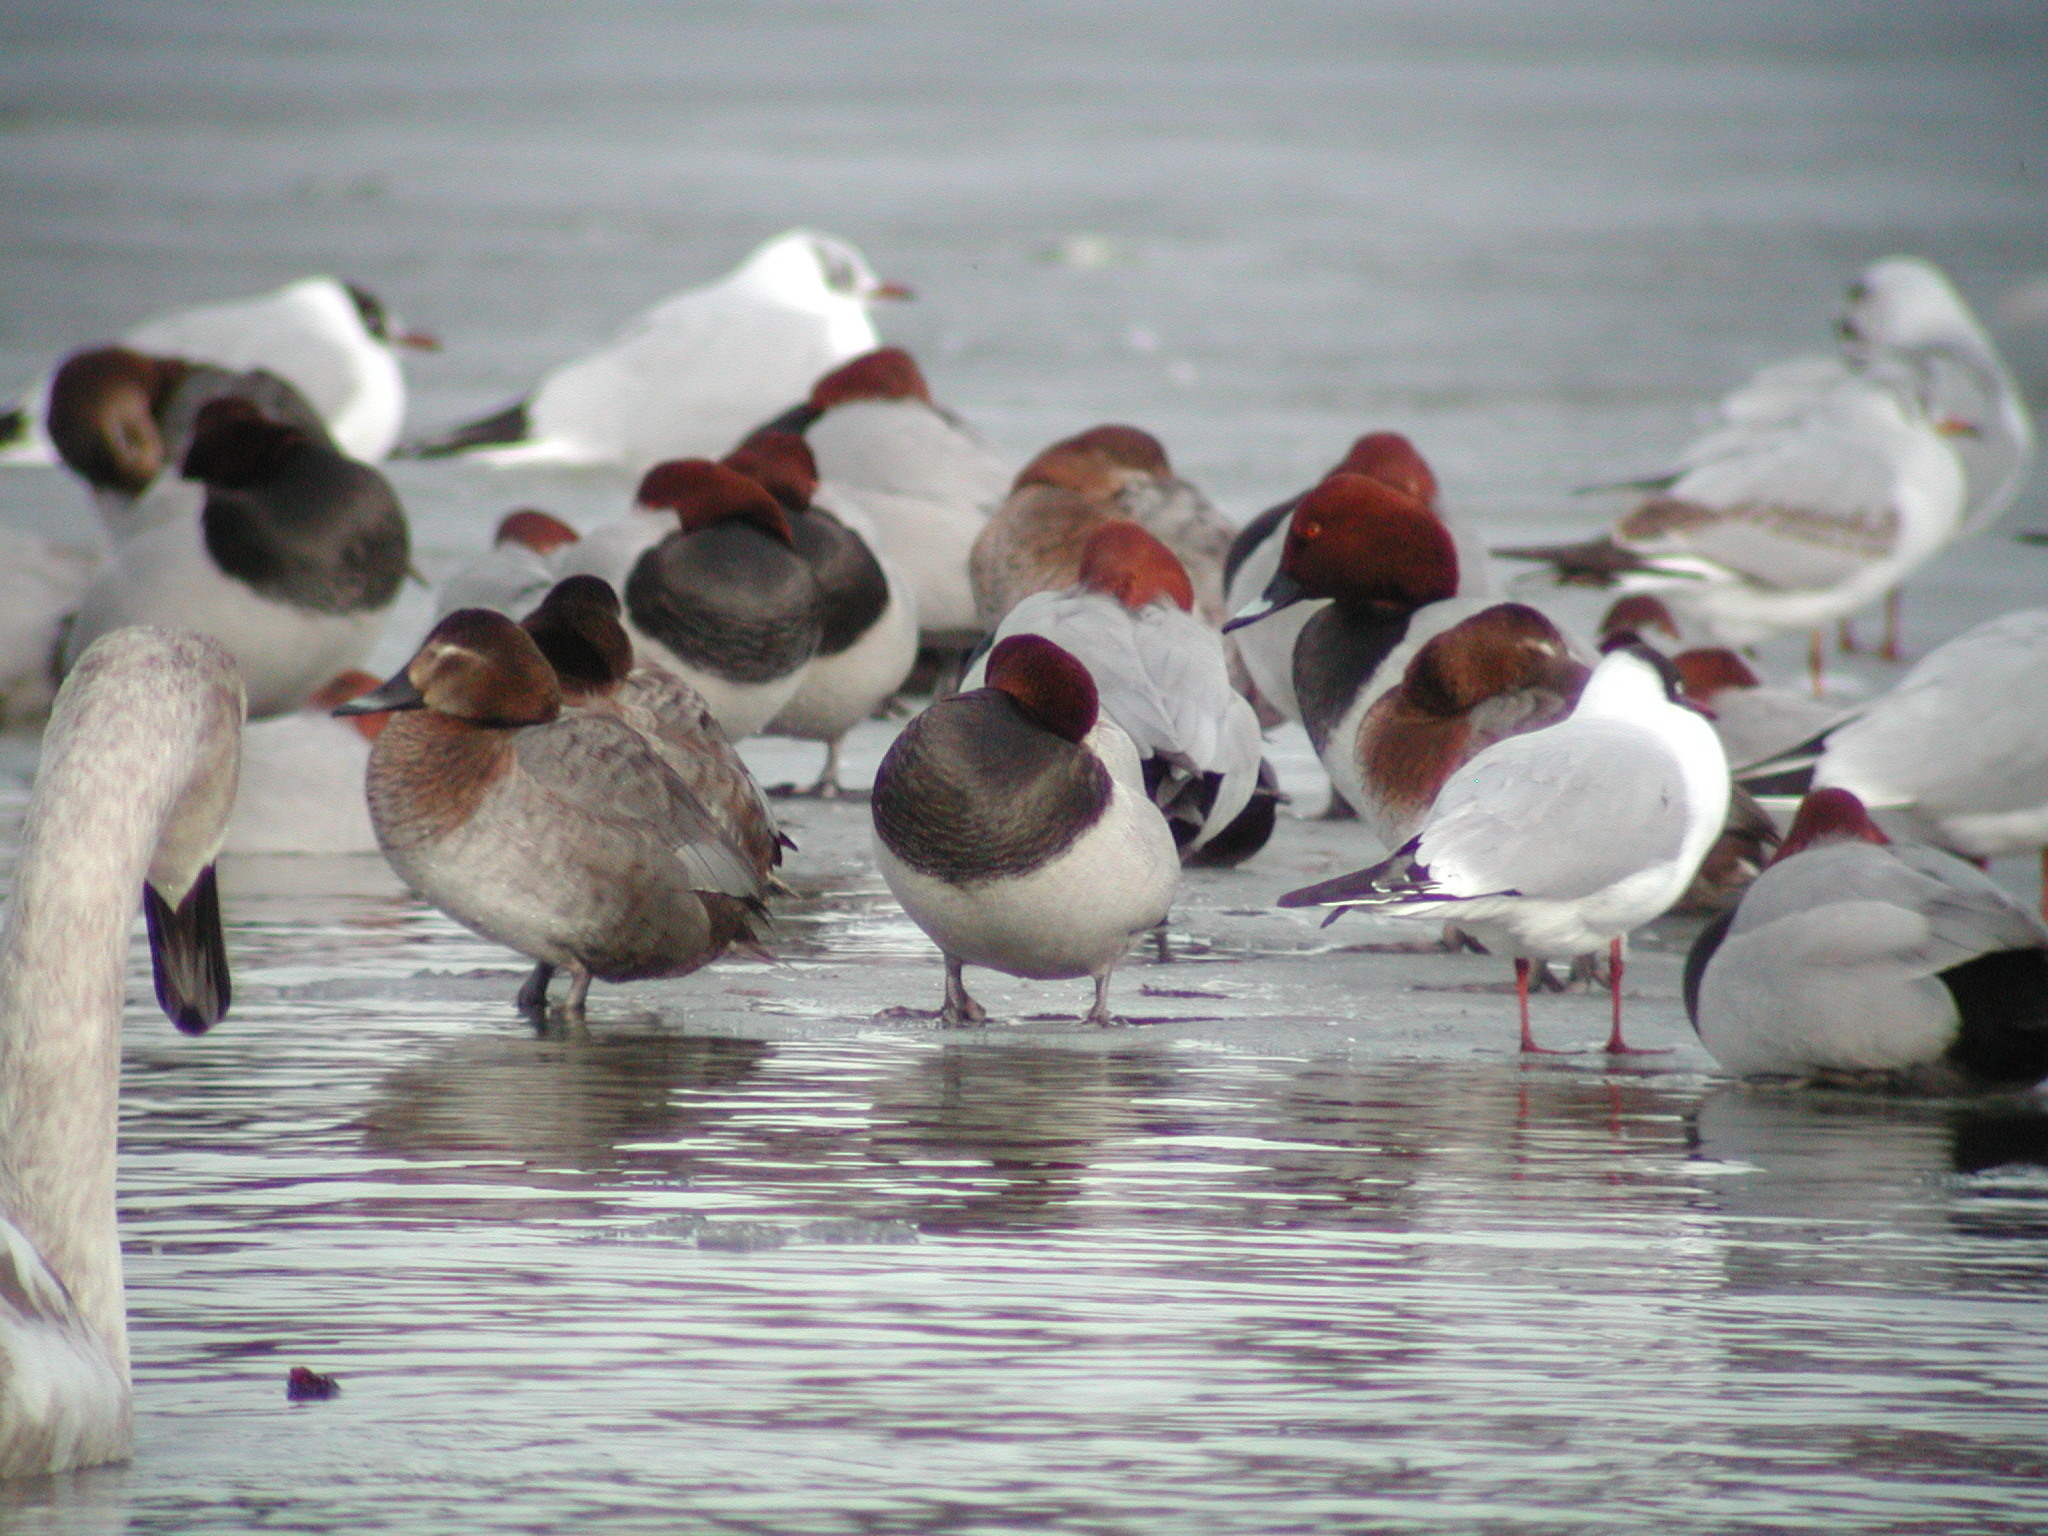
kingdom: Animalia
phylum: Chordata
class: Aves
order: Anseriformes
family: Anatidae
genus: Aythya
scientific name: Aythya ferina
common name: Common pochard
